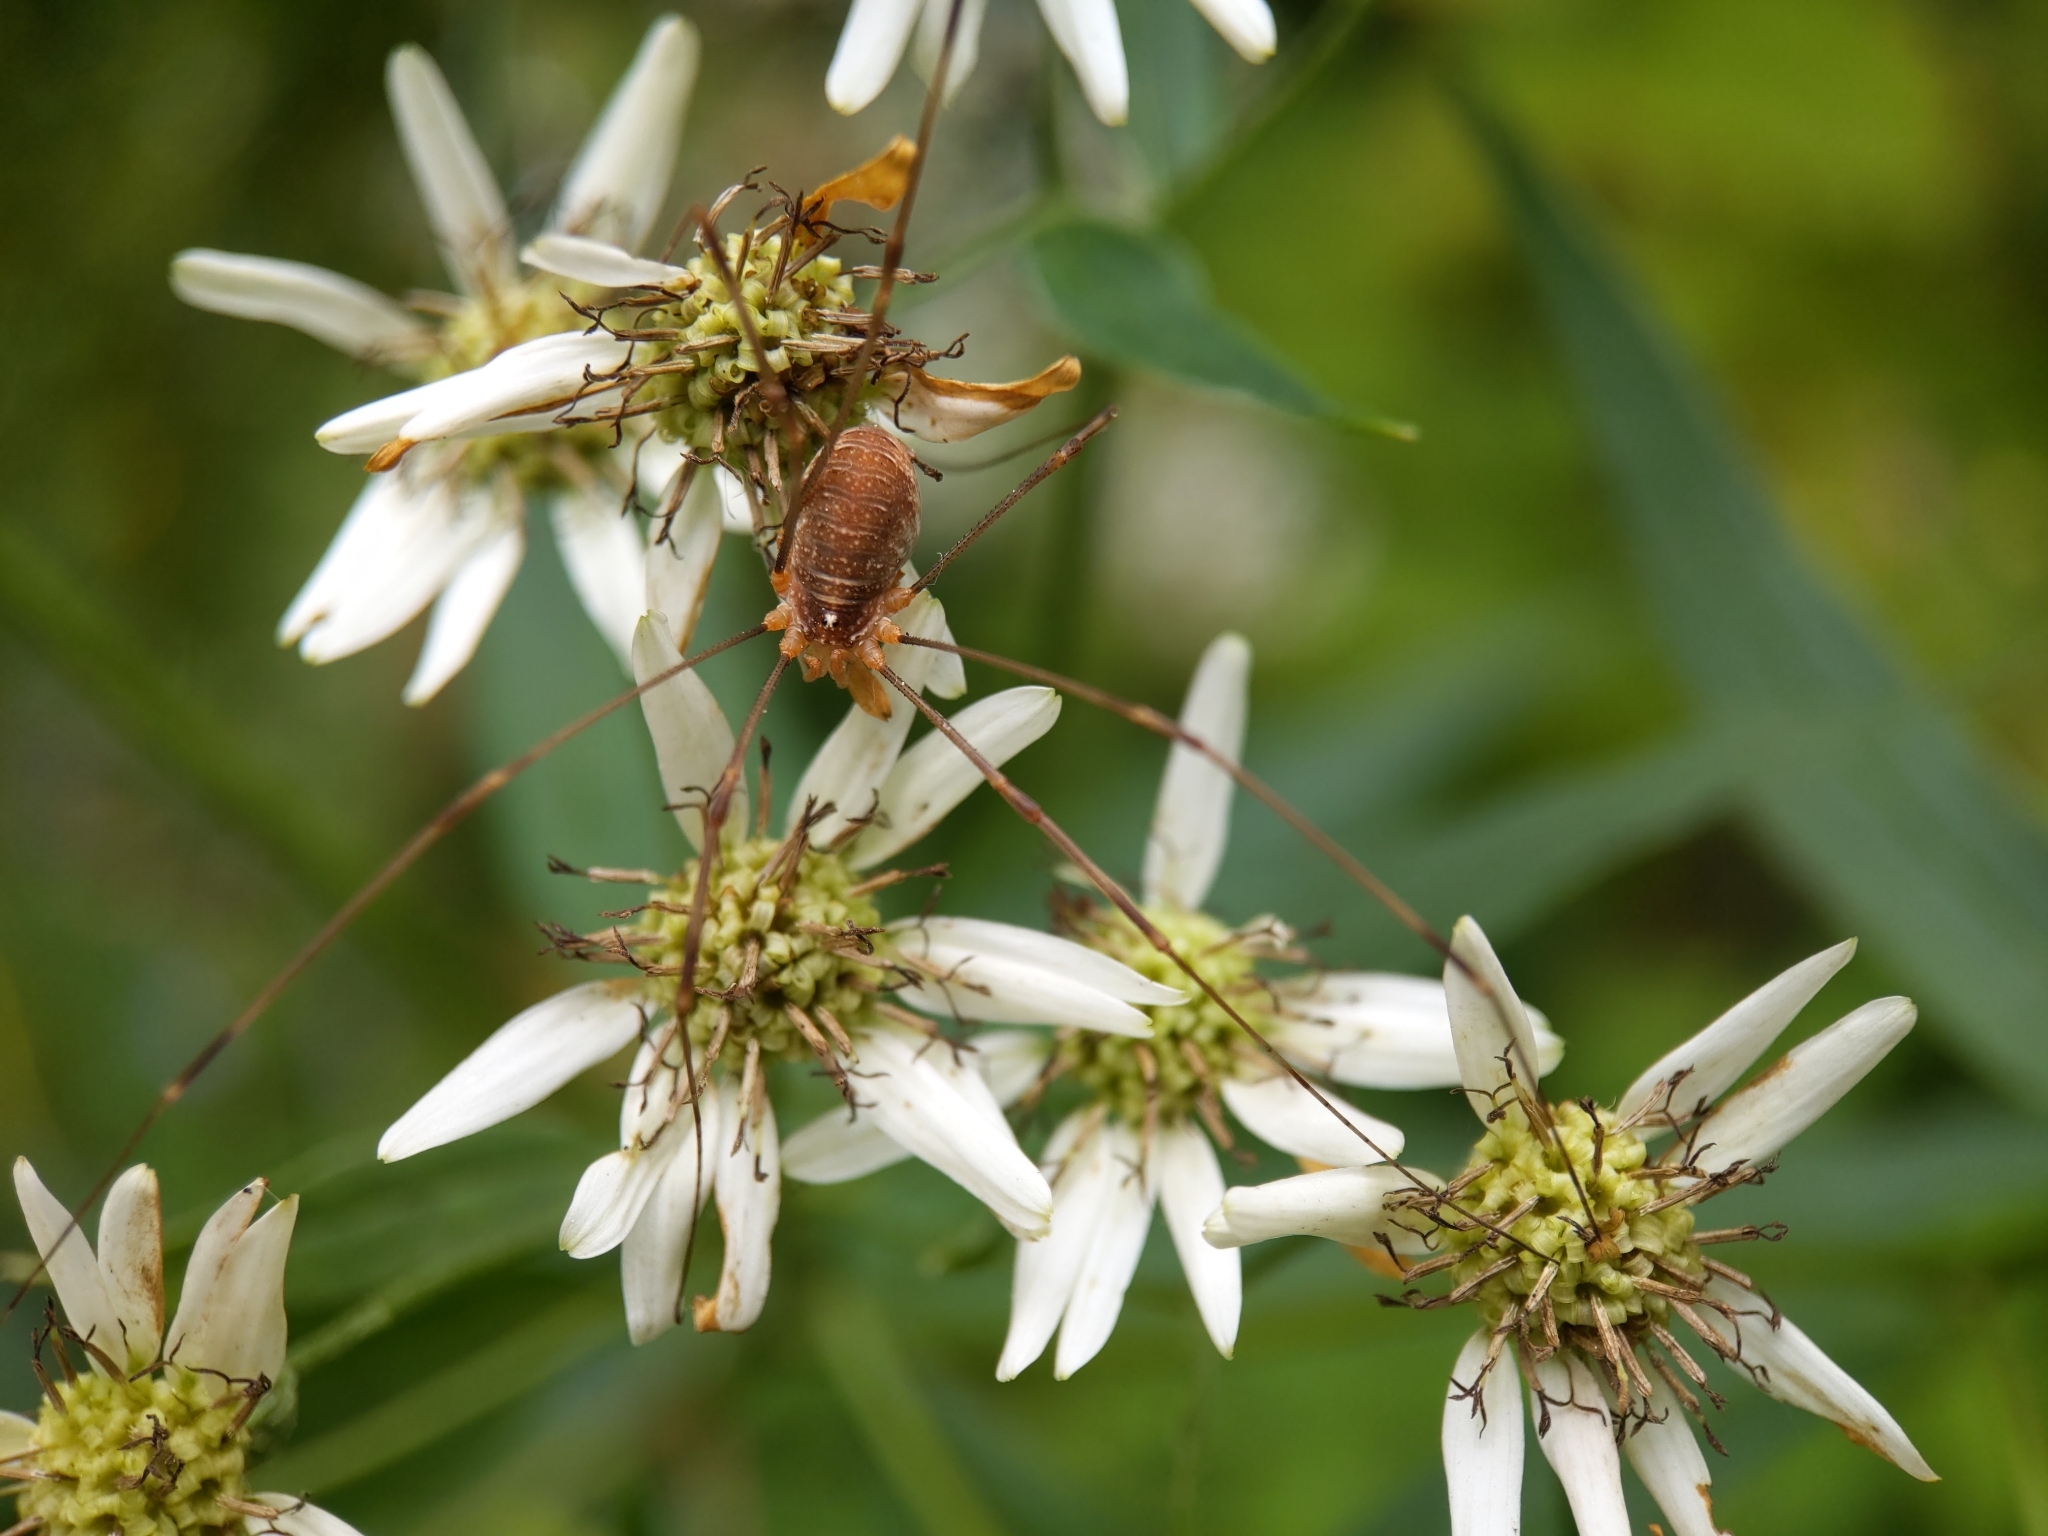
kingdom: Animalia
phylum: Arthropoda
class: Arachnida
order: Opiliones
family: Phalangiidae
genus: Opilio
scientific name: Opilio canestrinii
